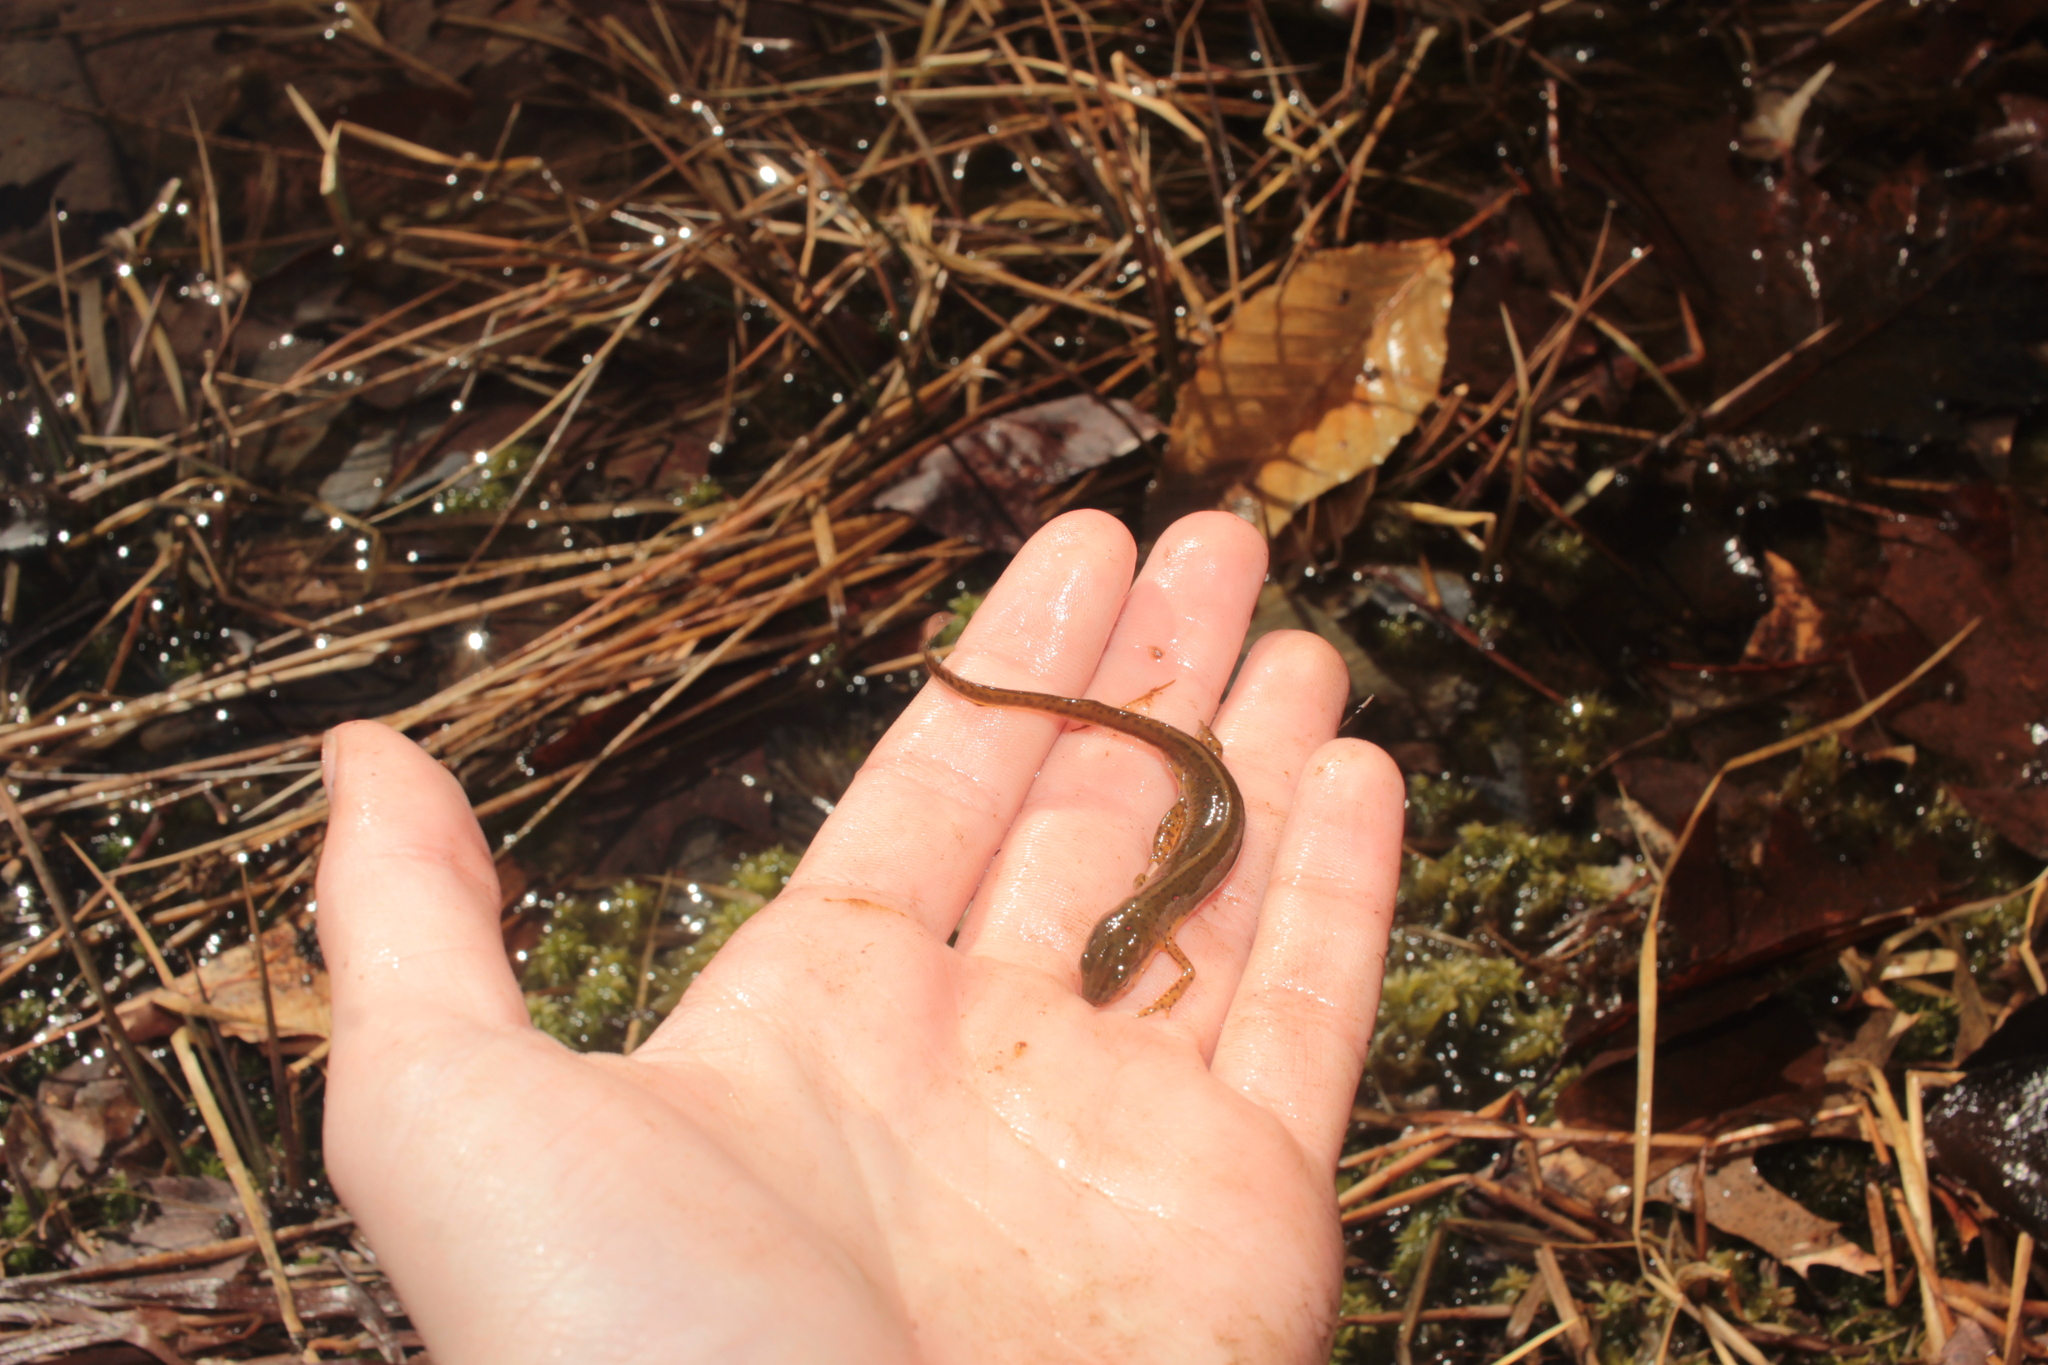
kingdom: Animalia
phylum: Chordata
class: Amphibia
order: Caudata
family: Salamandridae
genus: Notophthalmus
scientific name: Notophthalmus viridescens
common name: Eastern newt
